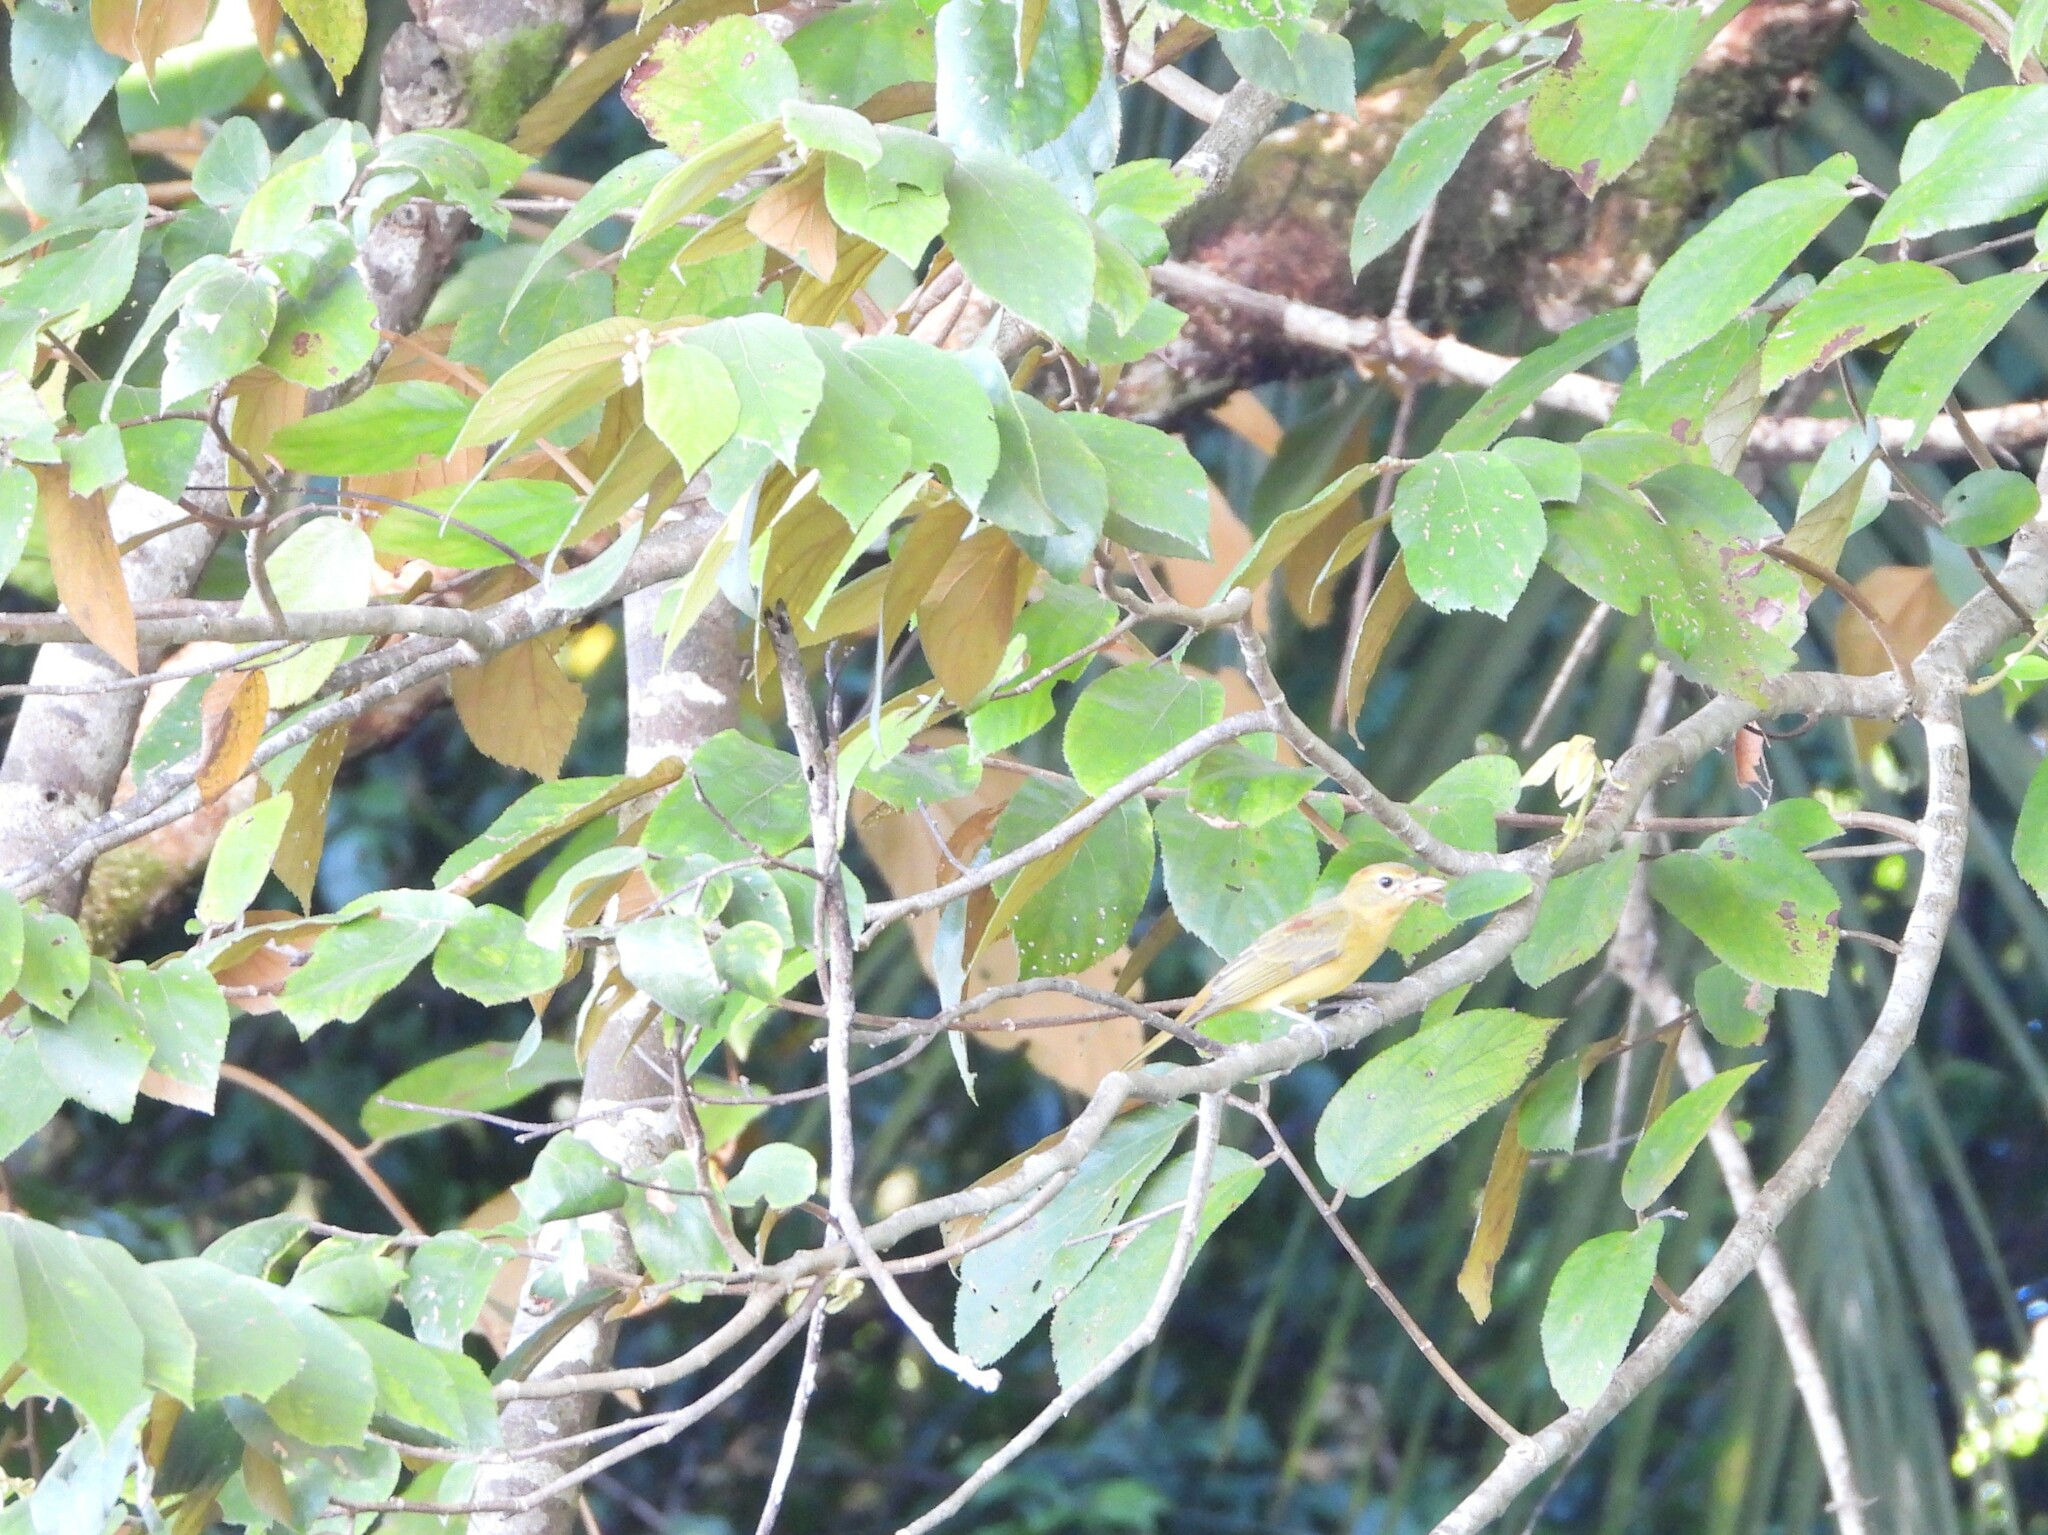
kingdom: Animalia
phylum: Chordata
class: Aves
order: Passeriformes
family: Cardinalidae
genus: Piranga
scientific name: Piranga rubra
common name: Summer tanager
